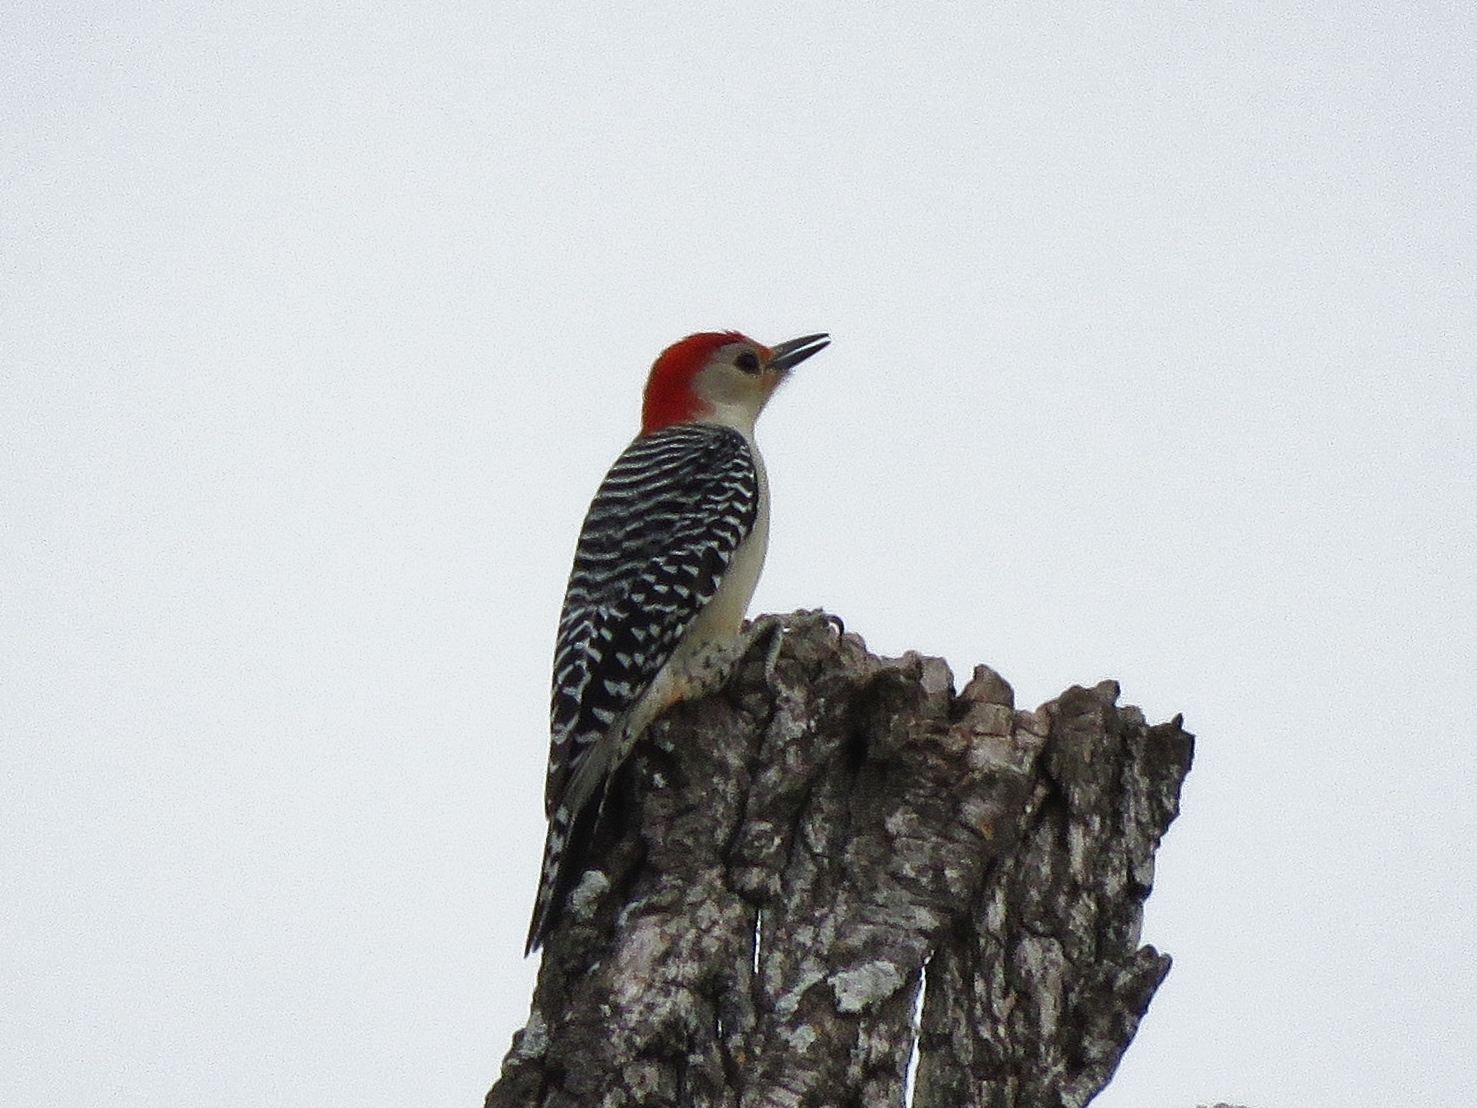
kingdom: Animalia
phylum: Chordata
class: Aves
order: Piciformes
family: Picidae
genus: Melanerpes
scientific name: Melanerpes carolinus
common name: Red-bellied woodpecker
